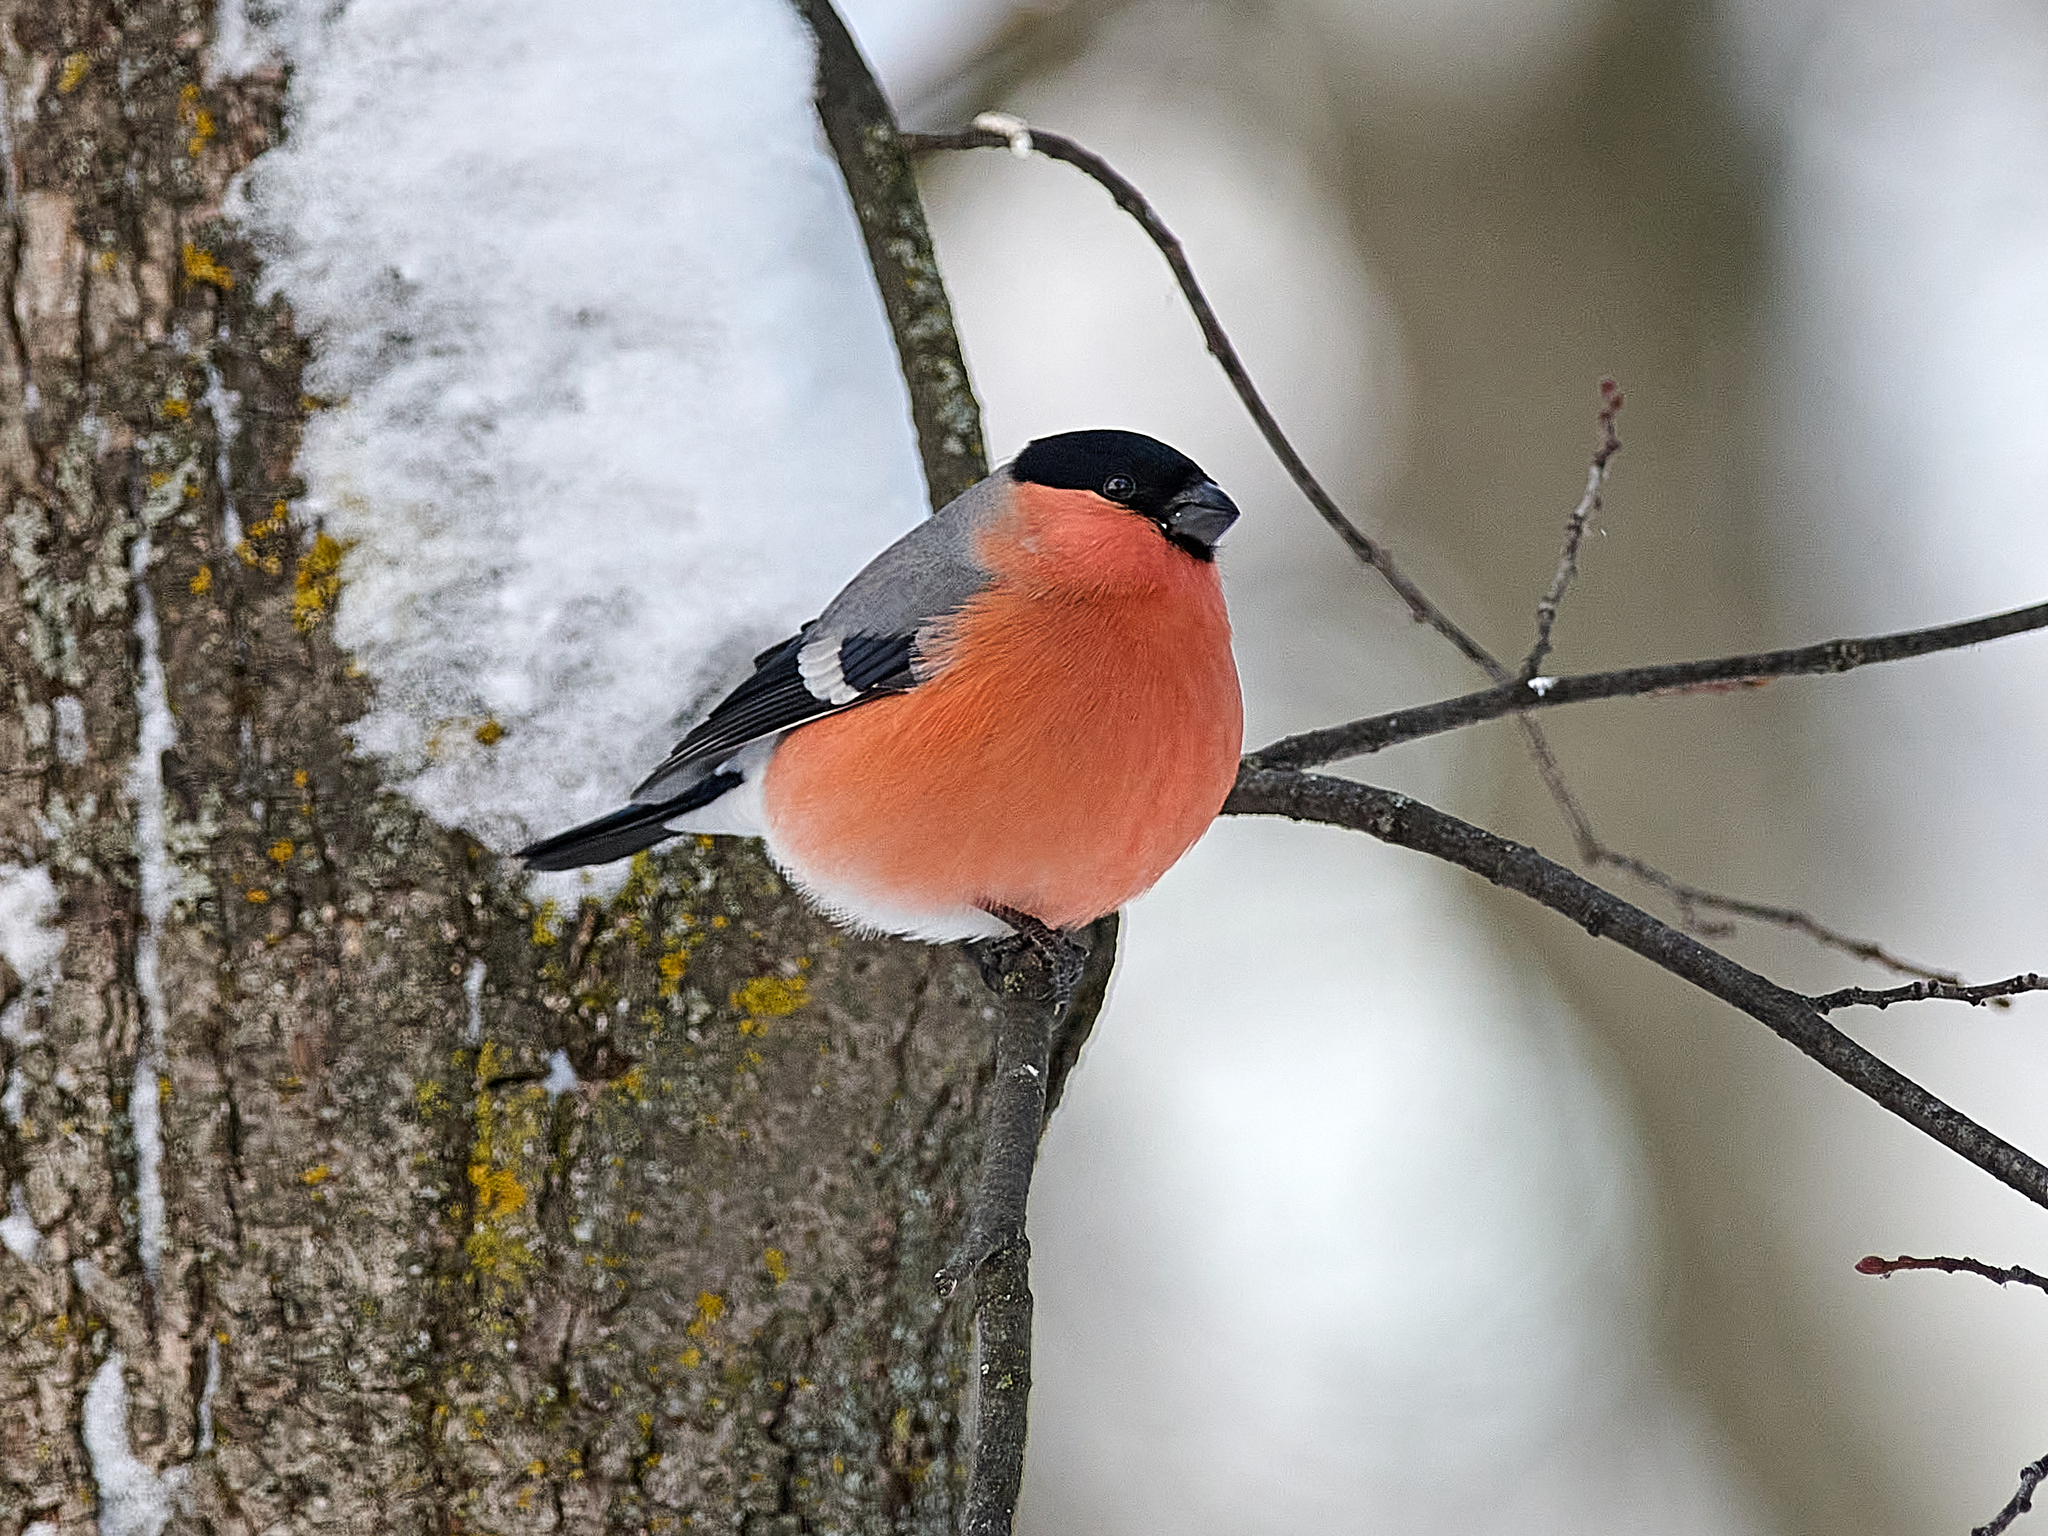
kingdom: Animalia
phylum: Chordata
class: Aves
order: Passeriformes
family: Fringillidae
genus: Pyrrhula
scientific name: Pyrrhula pyrrhula
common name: Eurasian bullfinch
